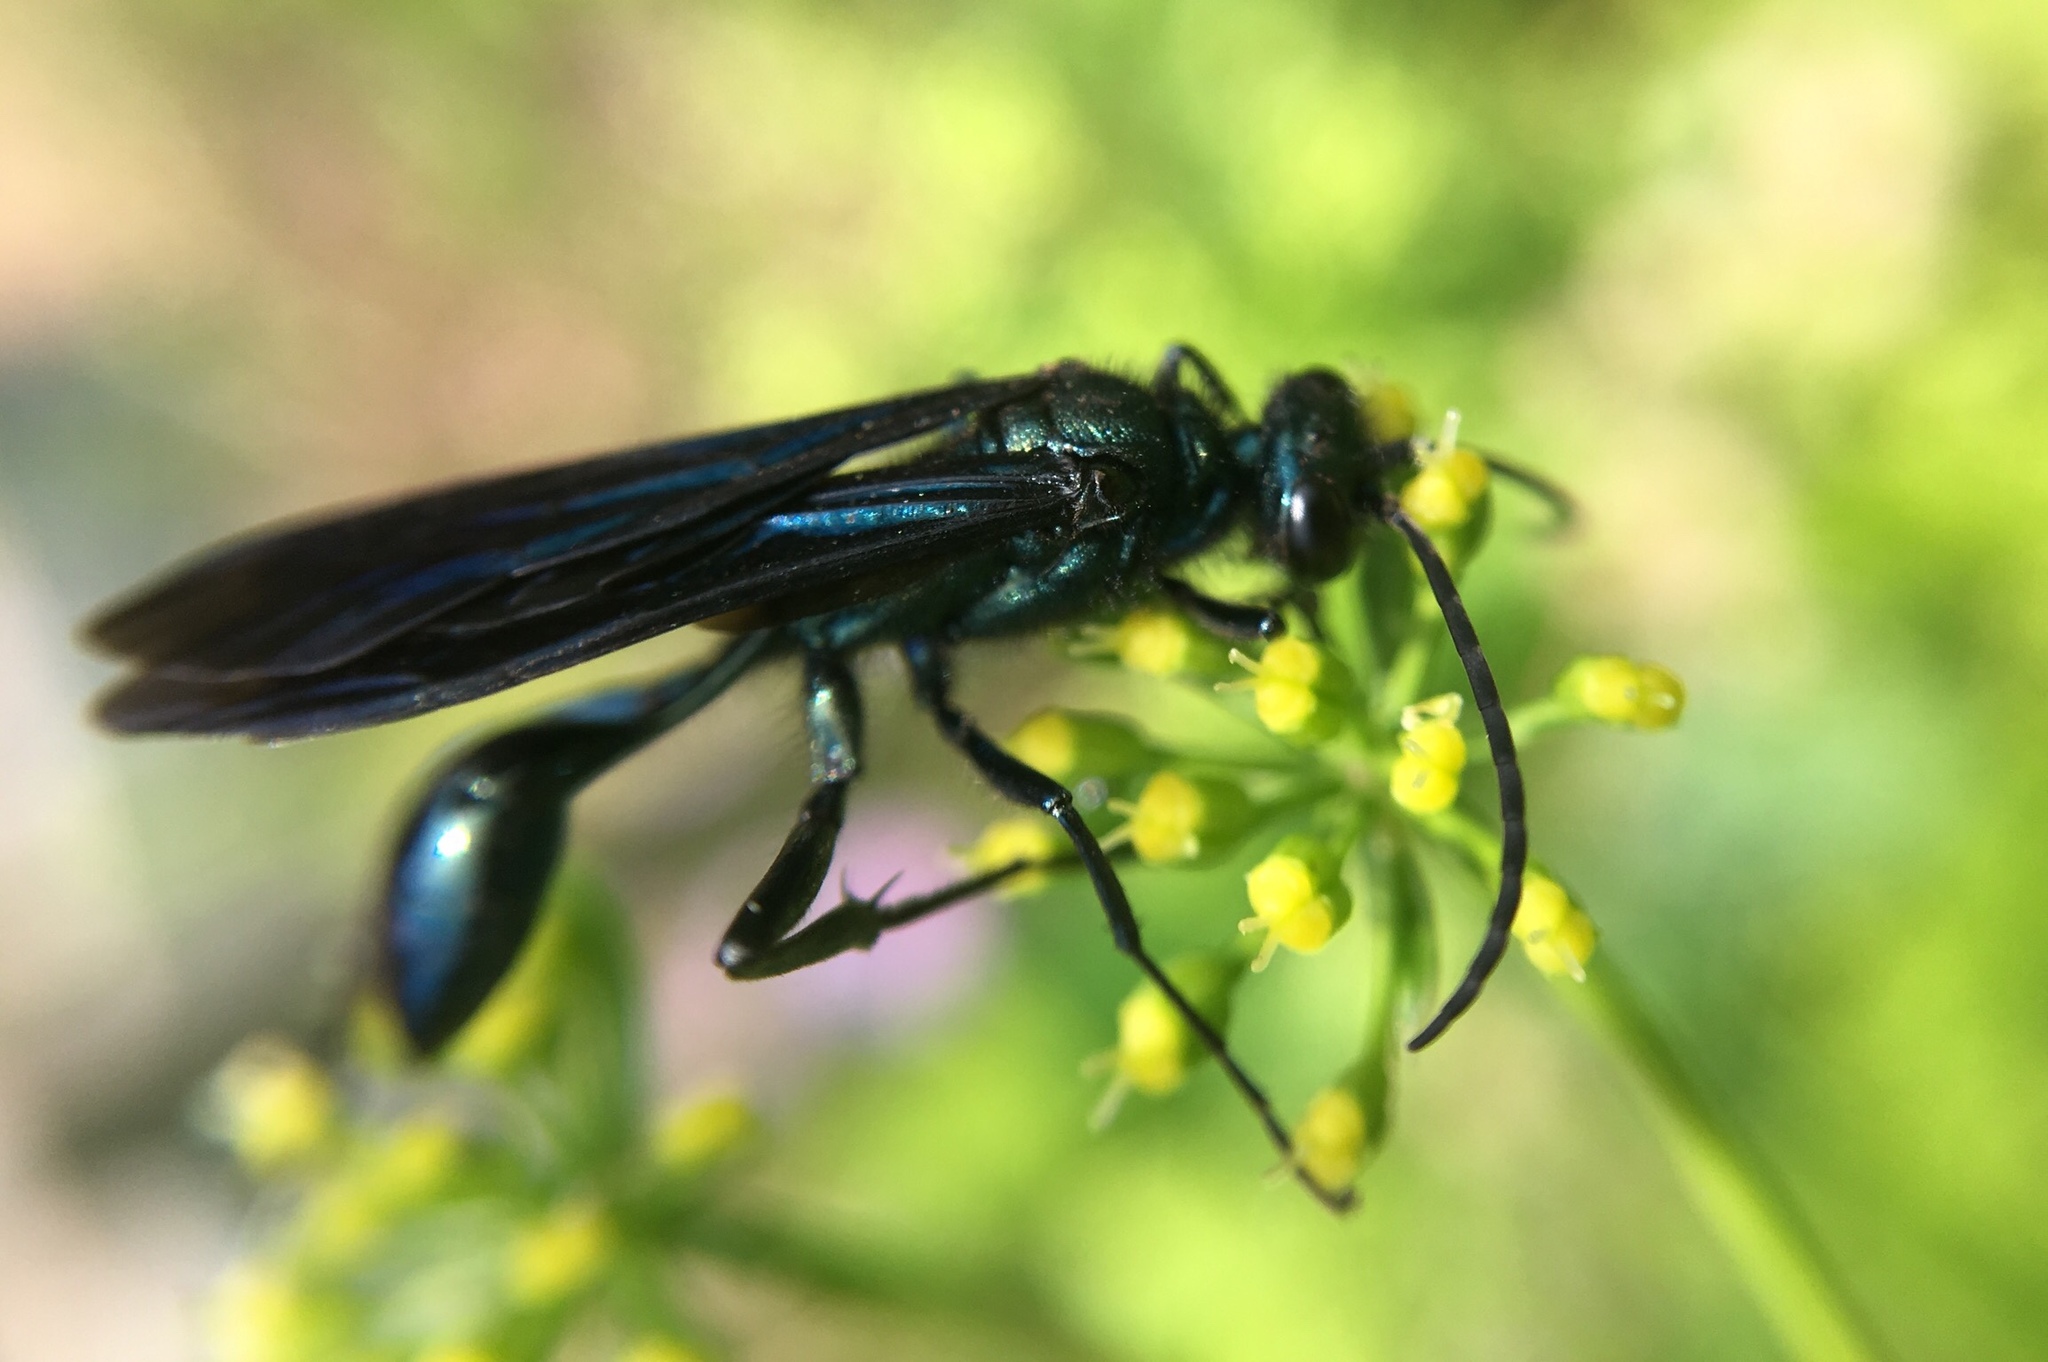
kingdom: Animalia
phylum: Arthropoda
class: Insecta
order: Hymenoptera
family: Sphecidae
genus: Chalybion
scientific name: Chalybion californicum
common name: Mud dauber
